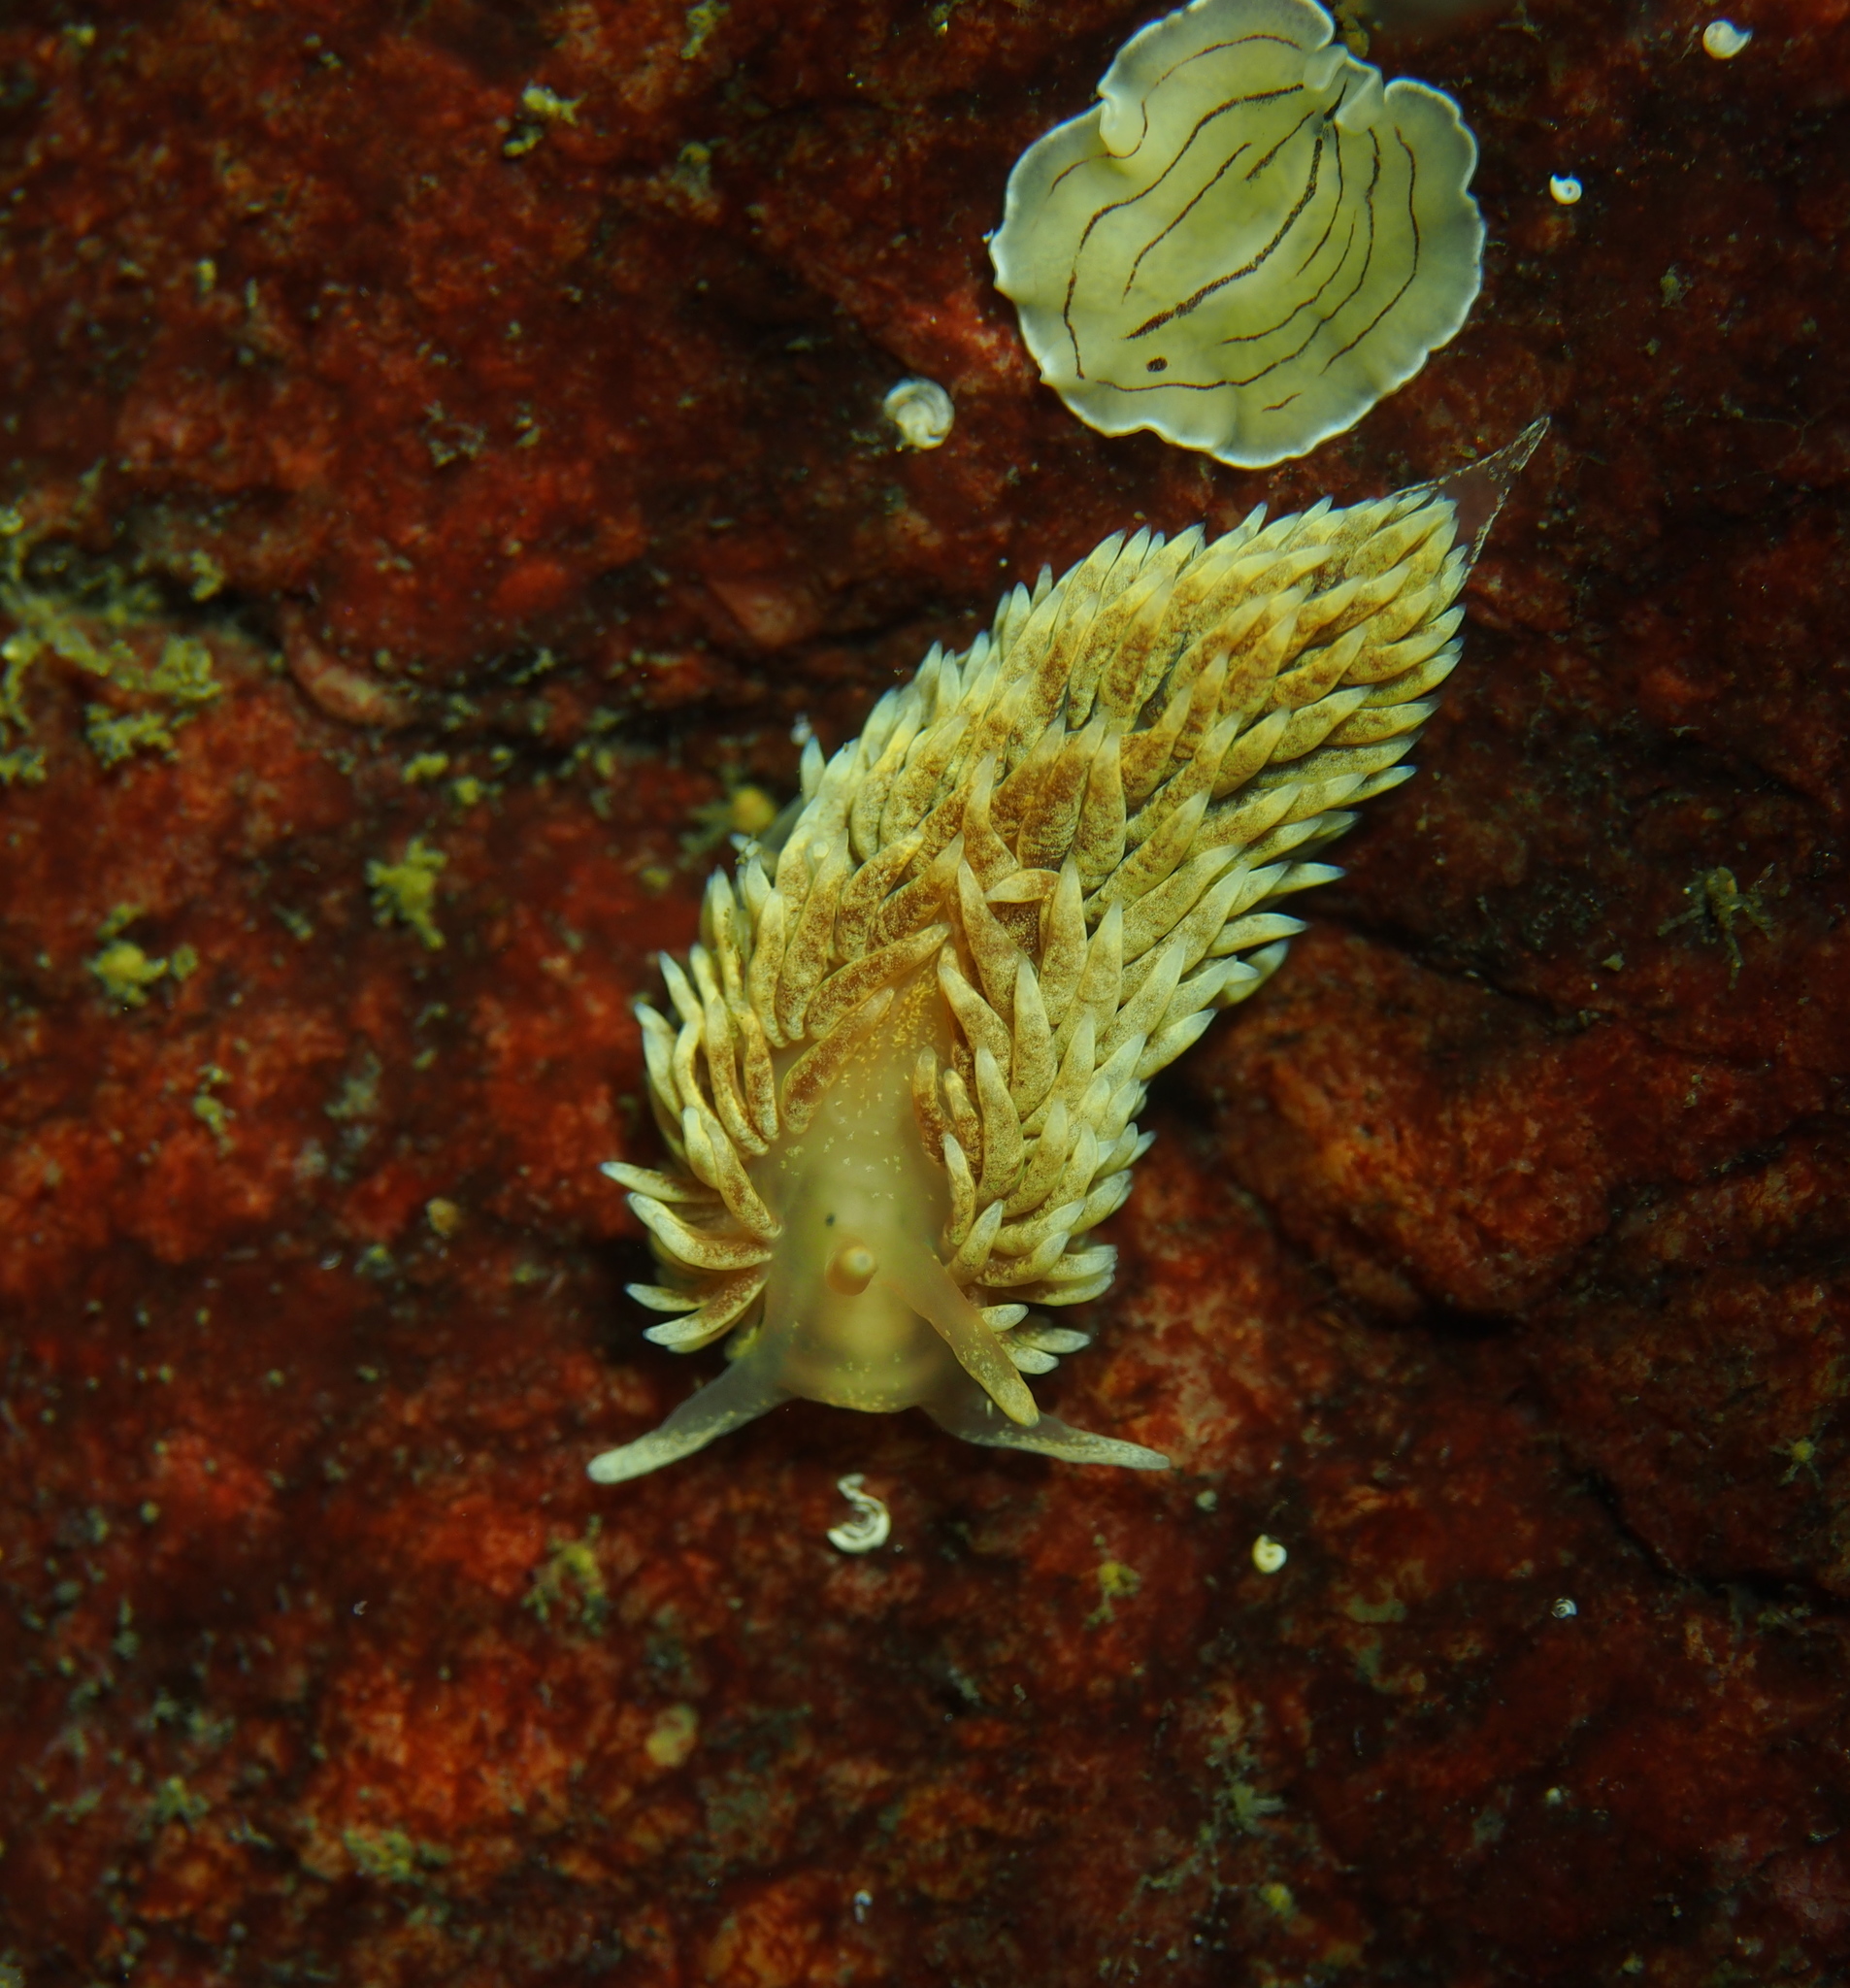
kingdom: Animalia
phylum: Mollusca
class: Gastropoda
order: Nudibranchia
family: Aeolidiidae
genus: Aeolidiella
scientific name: Aeolidiella glauca
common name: Orange-brown aeolid
